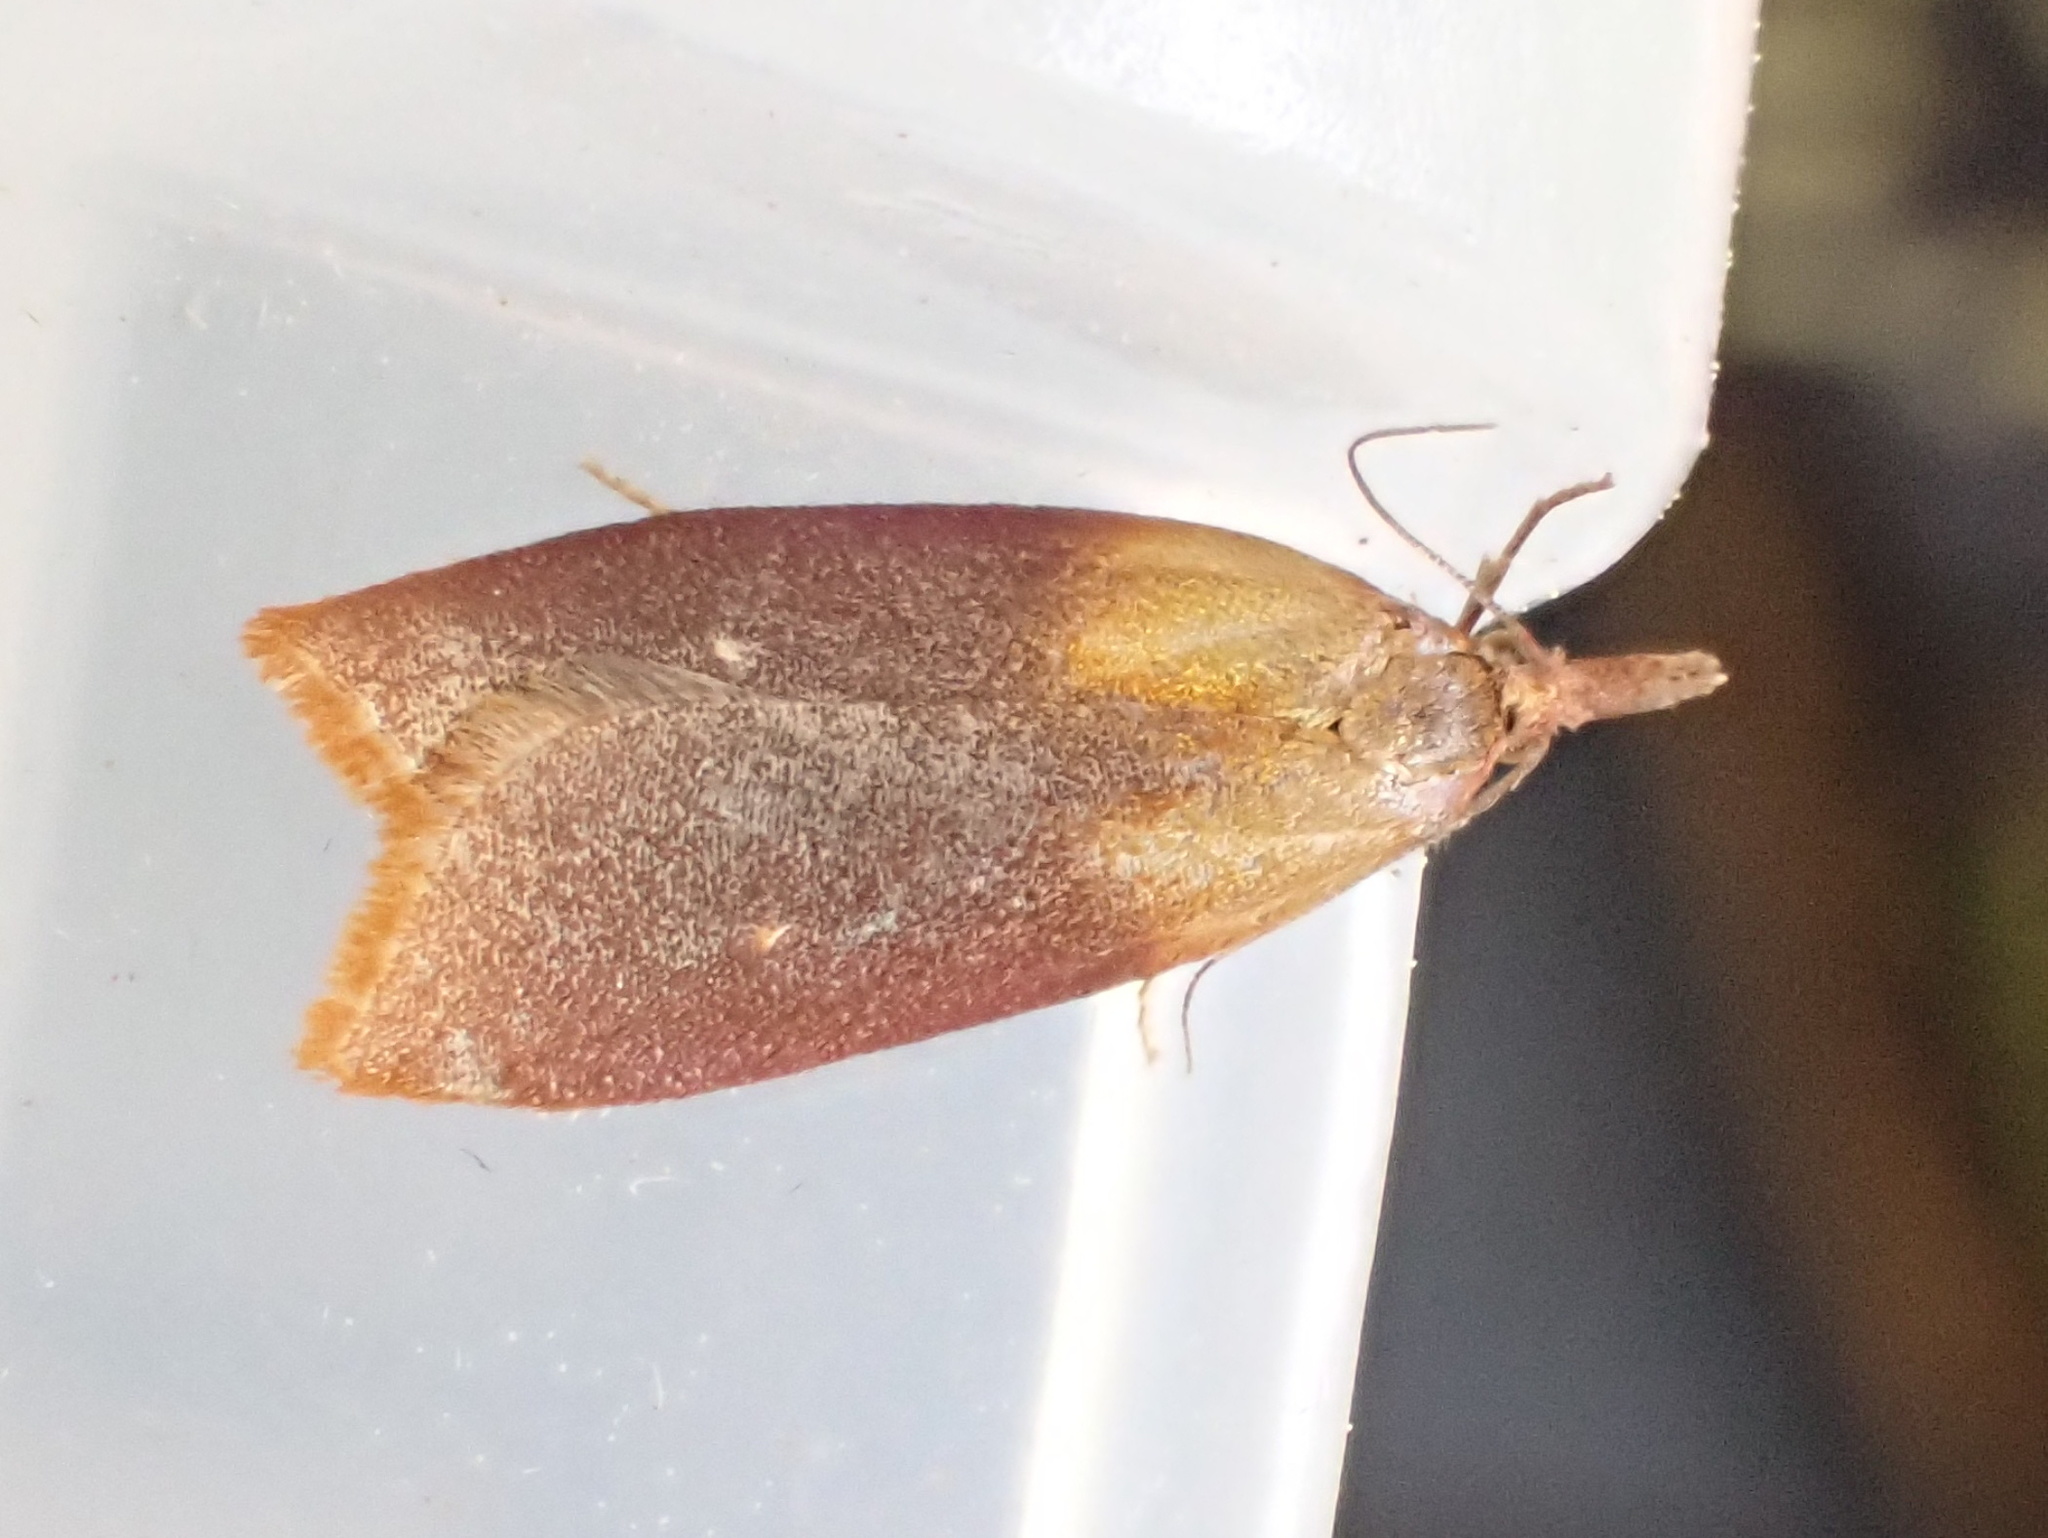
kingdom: Animalia
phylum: Arthropoda
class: Insecta
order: Lepidoptera
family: Tortricidae
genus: Sparganothis
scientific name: Sparganothis violaceana
